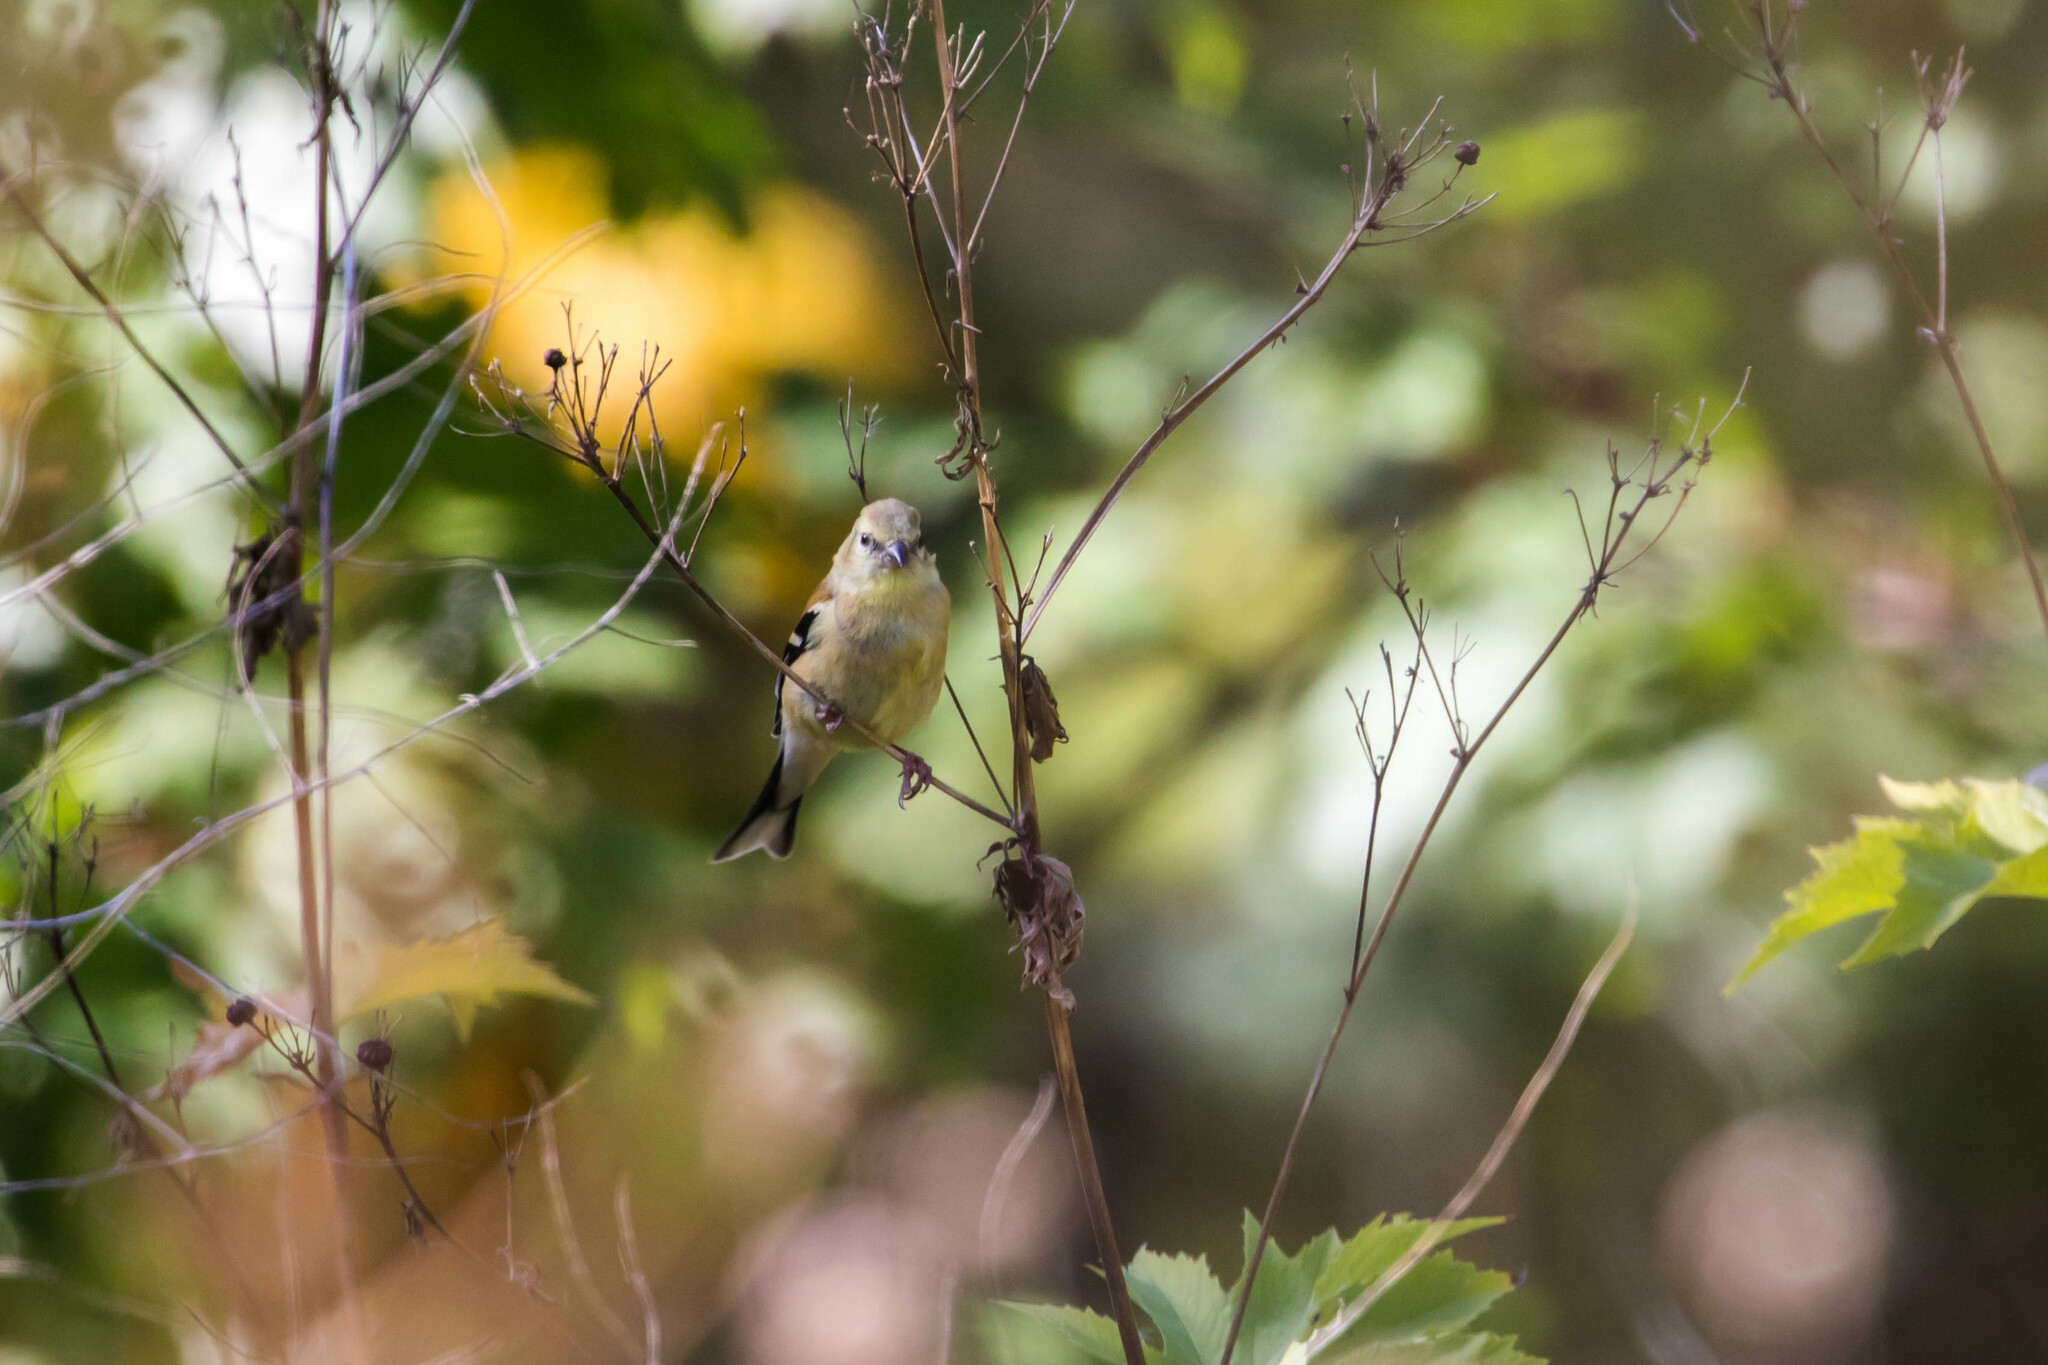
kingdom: Animalia
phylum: Chordata
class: Aves
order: Passeriformes
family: Fringillidae
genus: Spinus
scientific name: Spinus tristis
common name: American goldfinch
